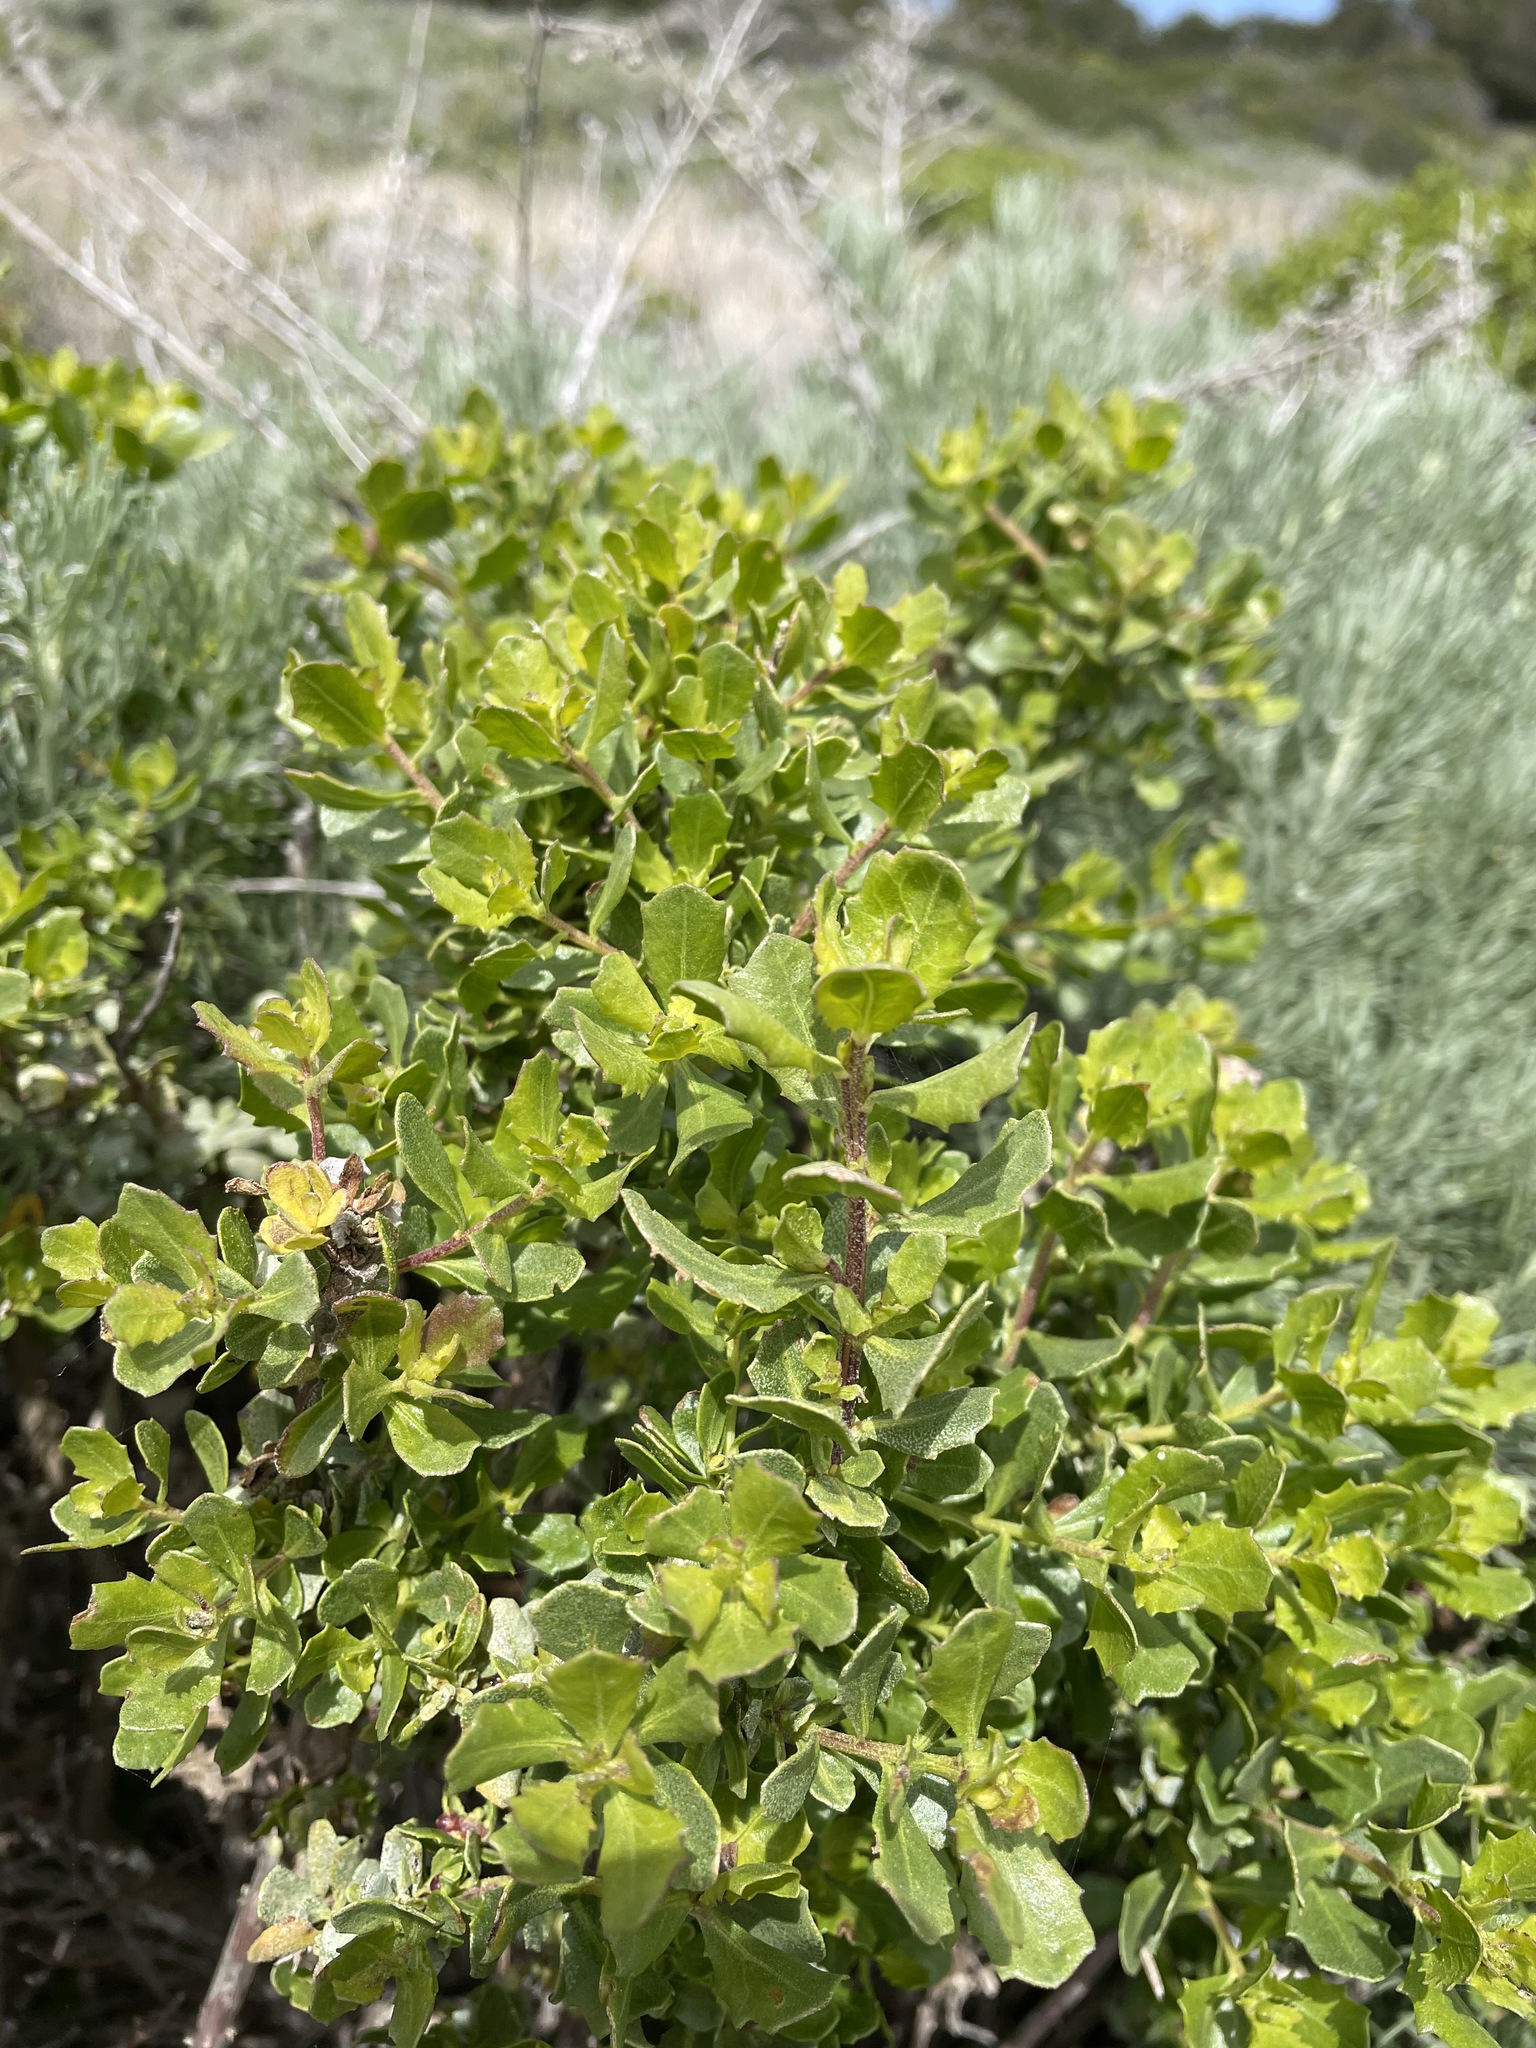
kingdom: Plantae
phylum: Tracheophyta
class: Magnoliopsida
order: Asterales
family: Asteraceae
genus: Baccharis
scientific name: Baccharis pilularis
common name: Coyotebrush
